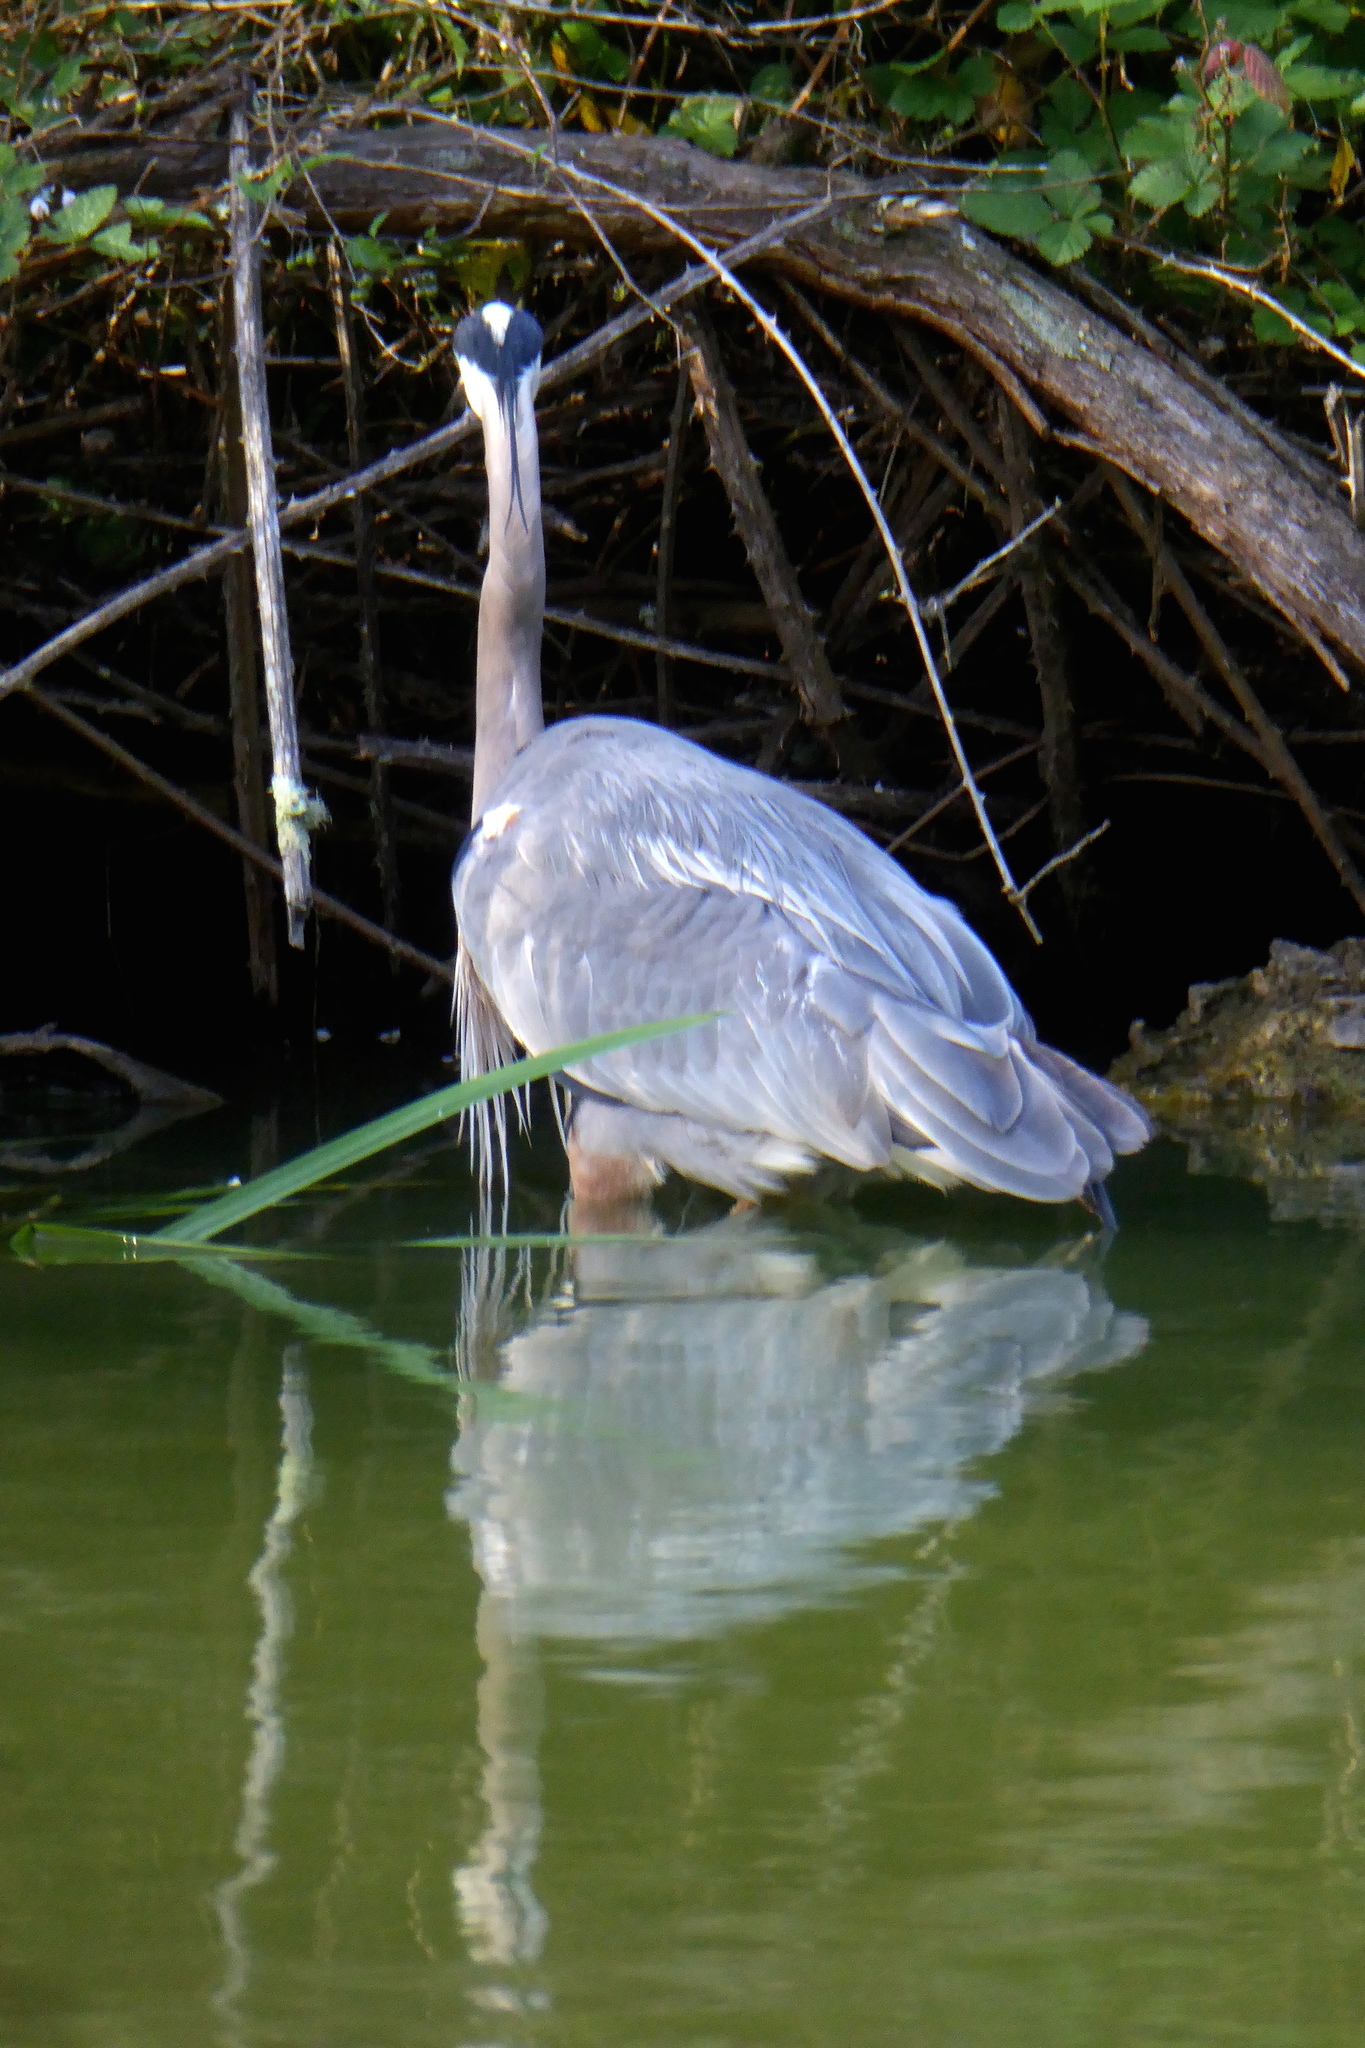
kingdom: Animalia
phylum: Chordata
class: Aves
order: Pelecaniformes
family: Ardeidae
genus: Ardea
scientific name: Ardea herodias
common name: Great blue heron
